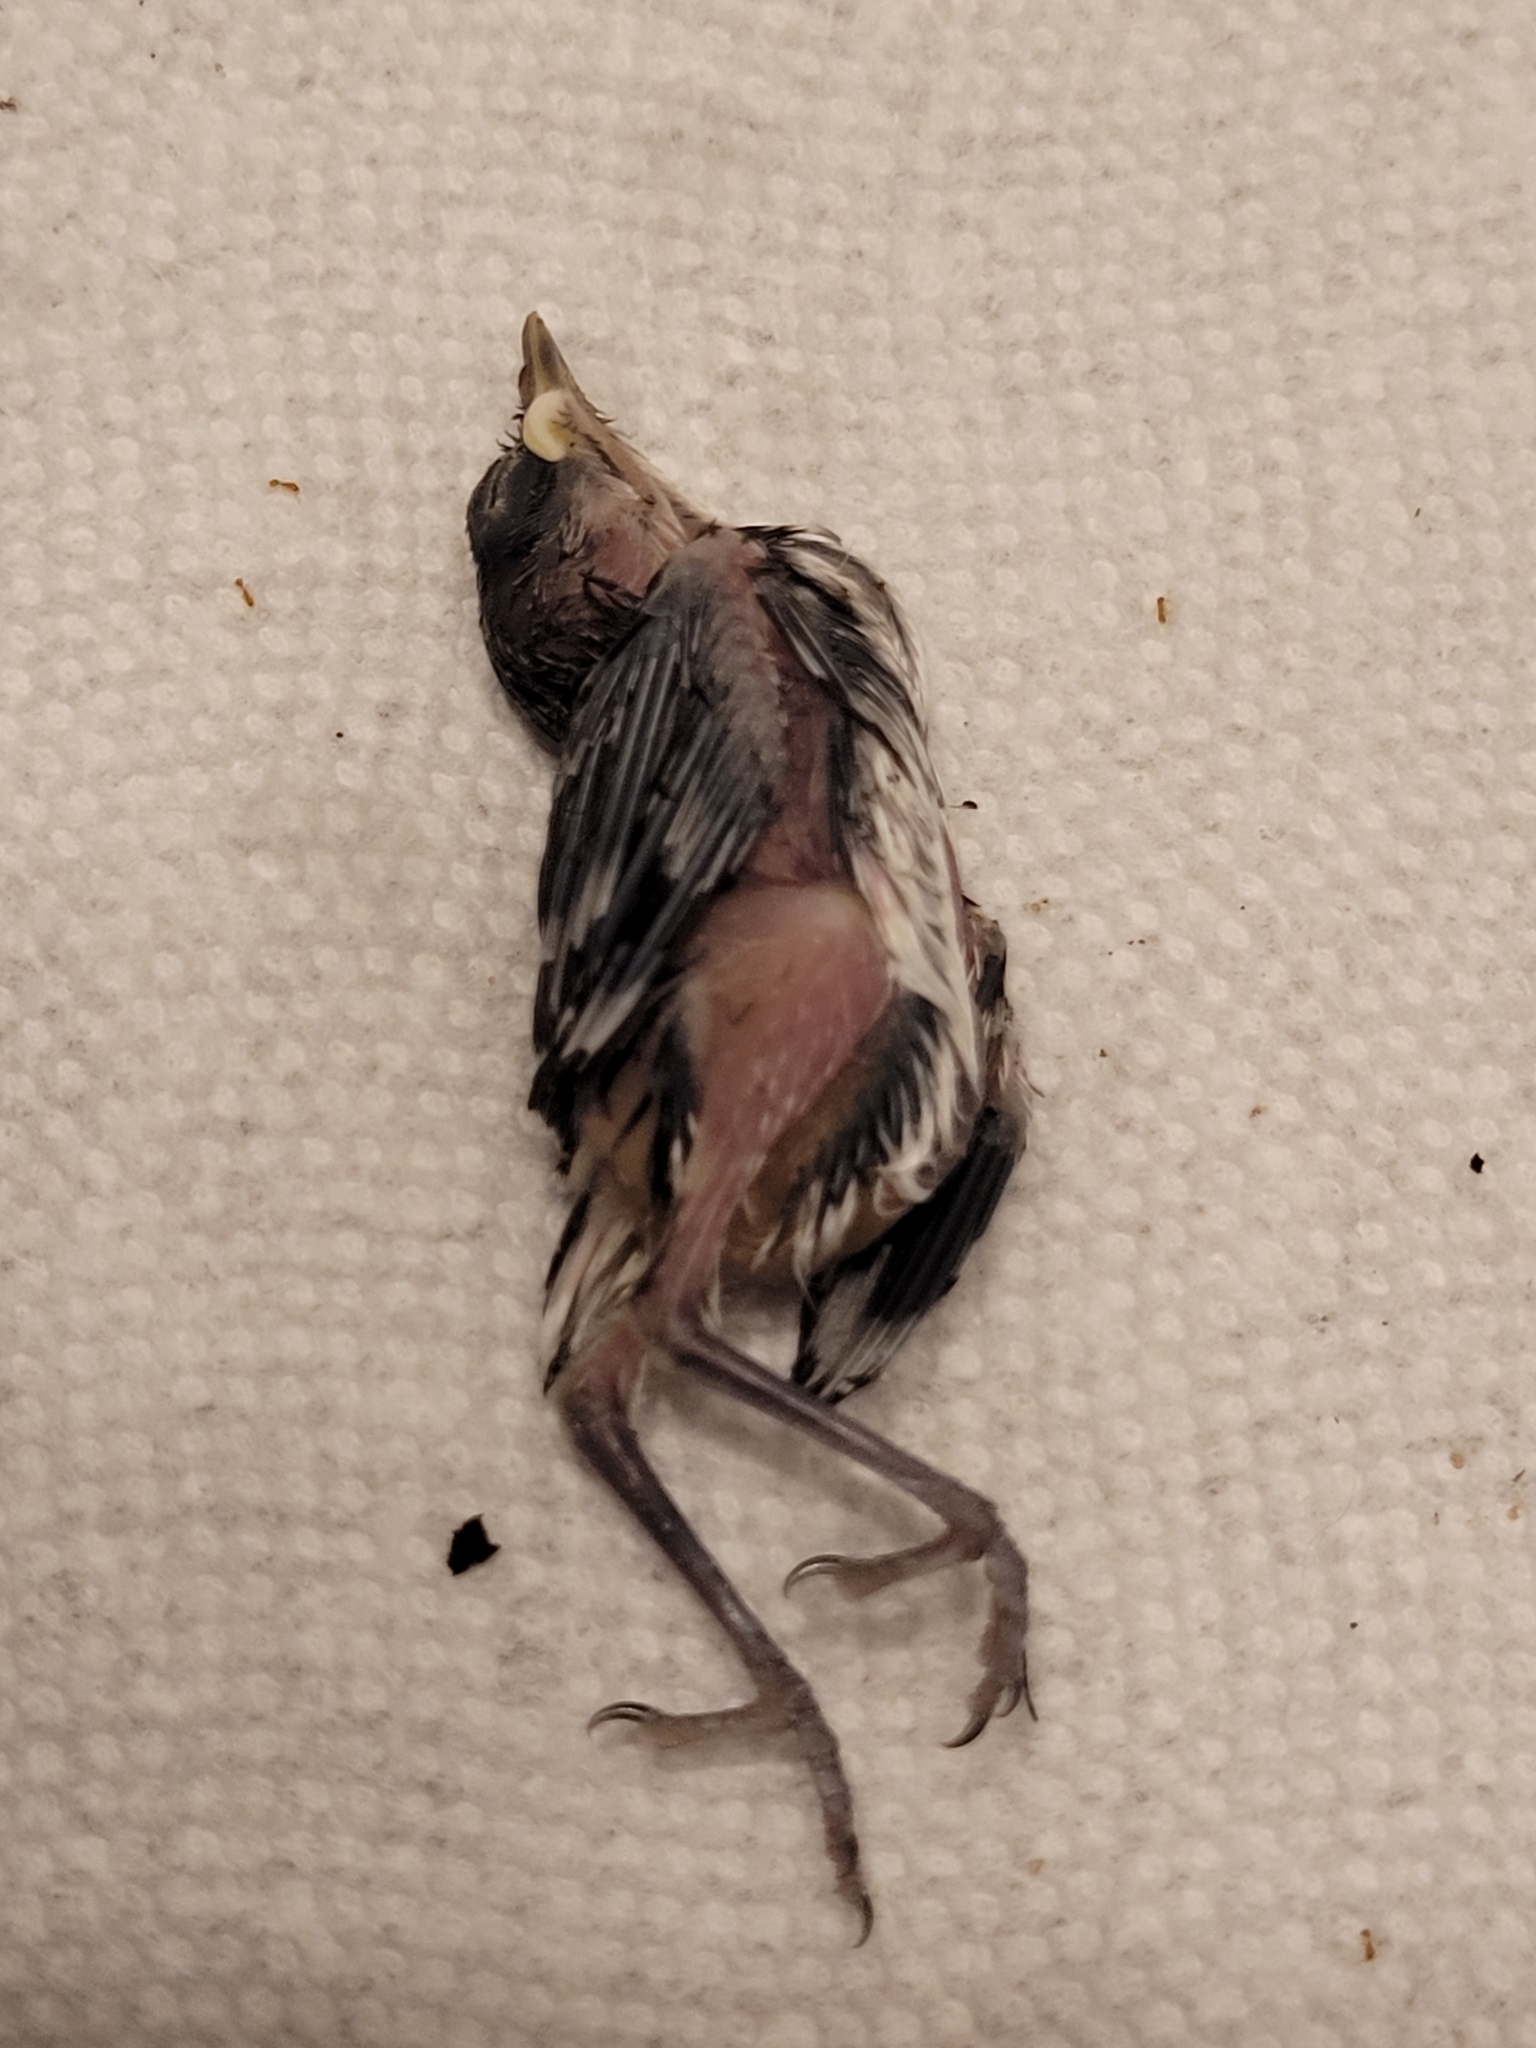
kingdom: Animalia
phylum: Chordata
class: Aves
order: Passeriformes
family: Mimidae
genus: Mimus
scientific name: Mimus polyglottos
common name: Northern mockingbird
